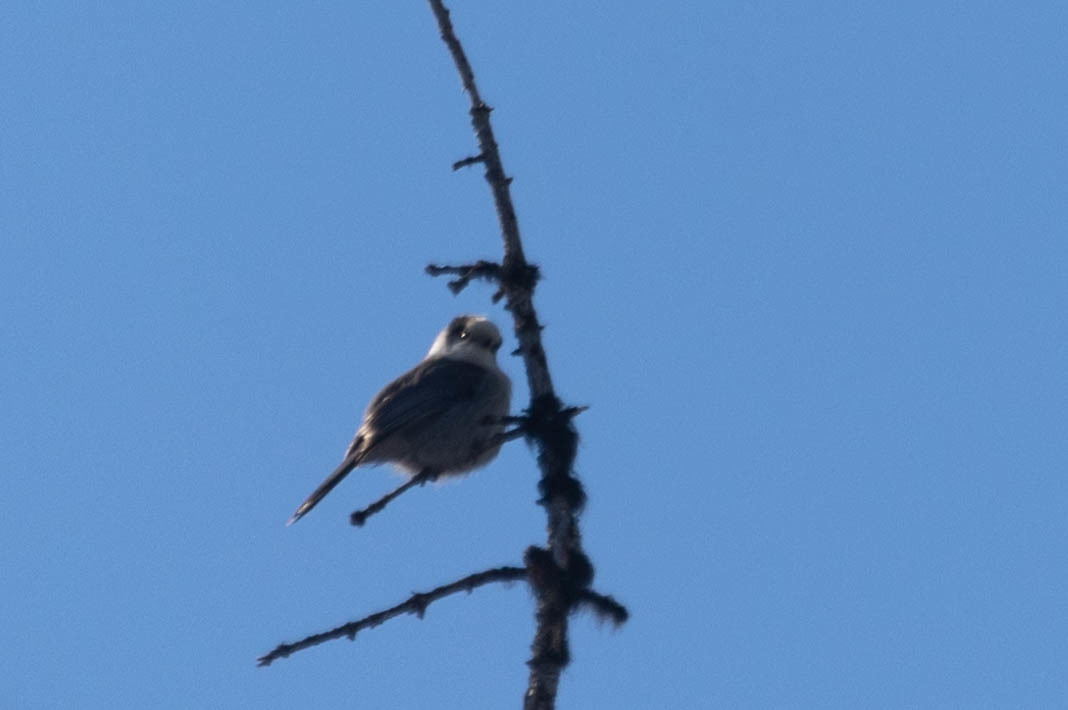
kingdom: Animalia
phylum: Chordata
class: Aves
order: Passeriformes
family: Corvidae
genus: Perisoreus
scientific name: Perisoreus canadensis
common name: Gray jay
